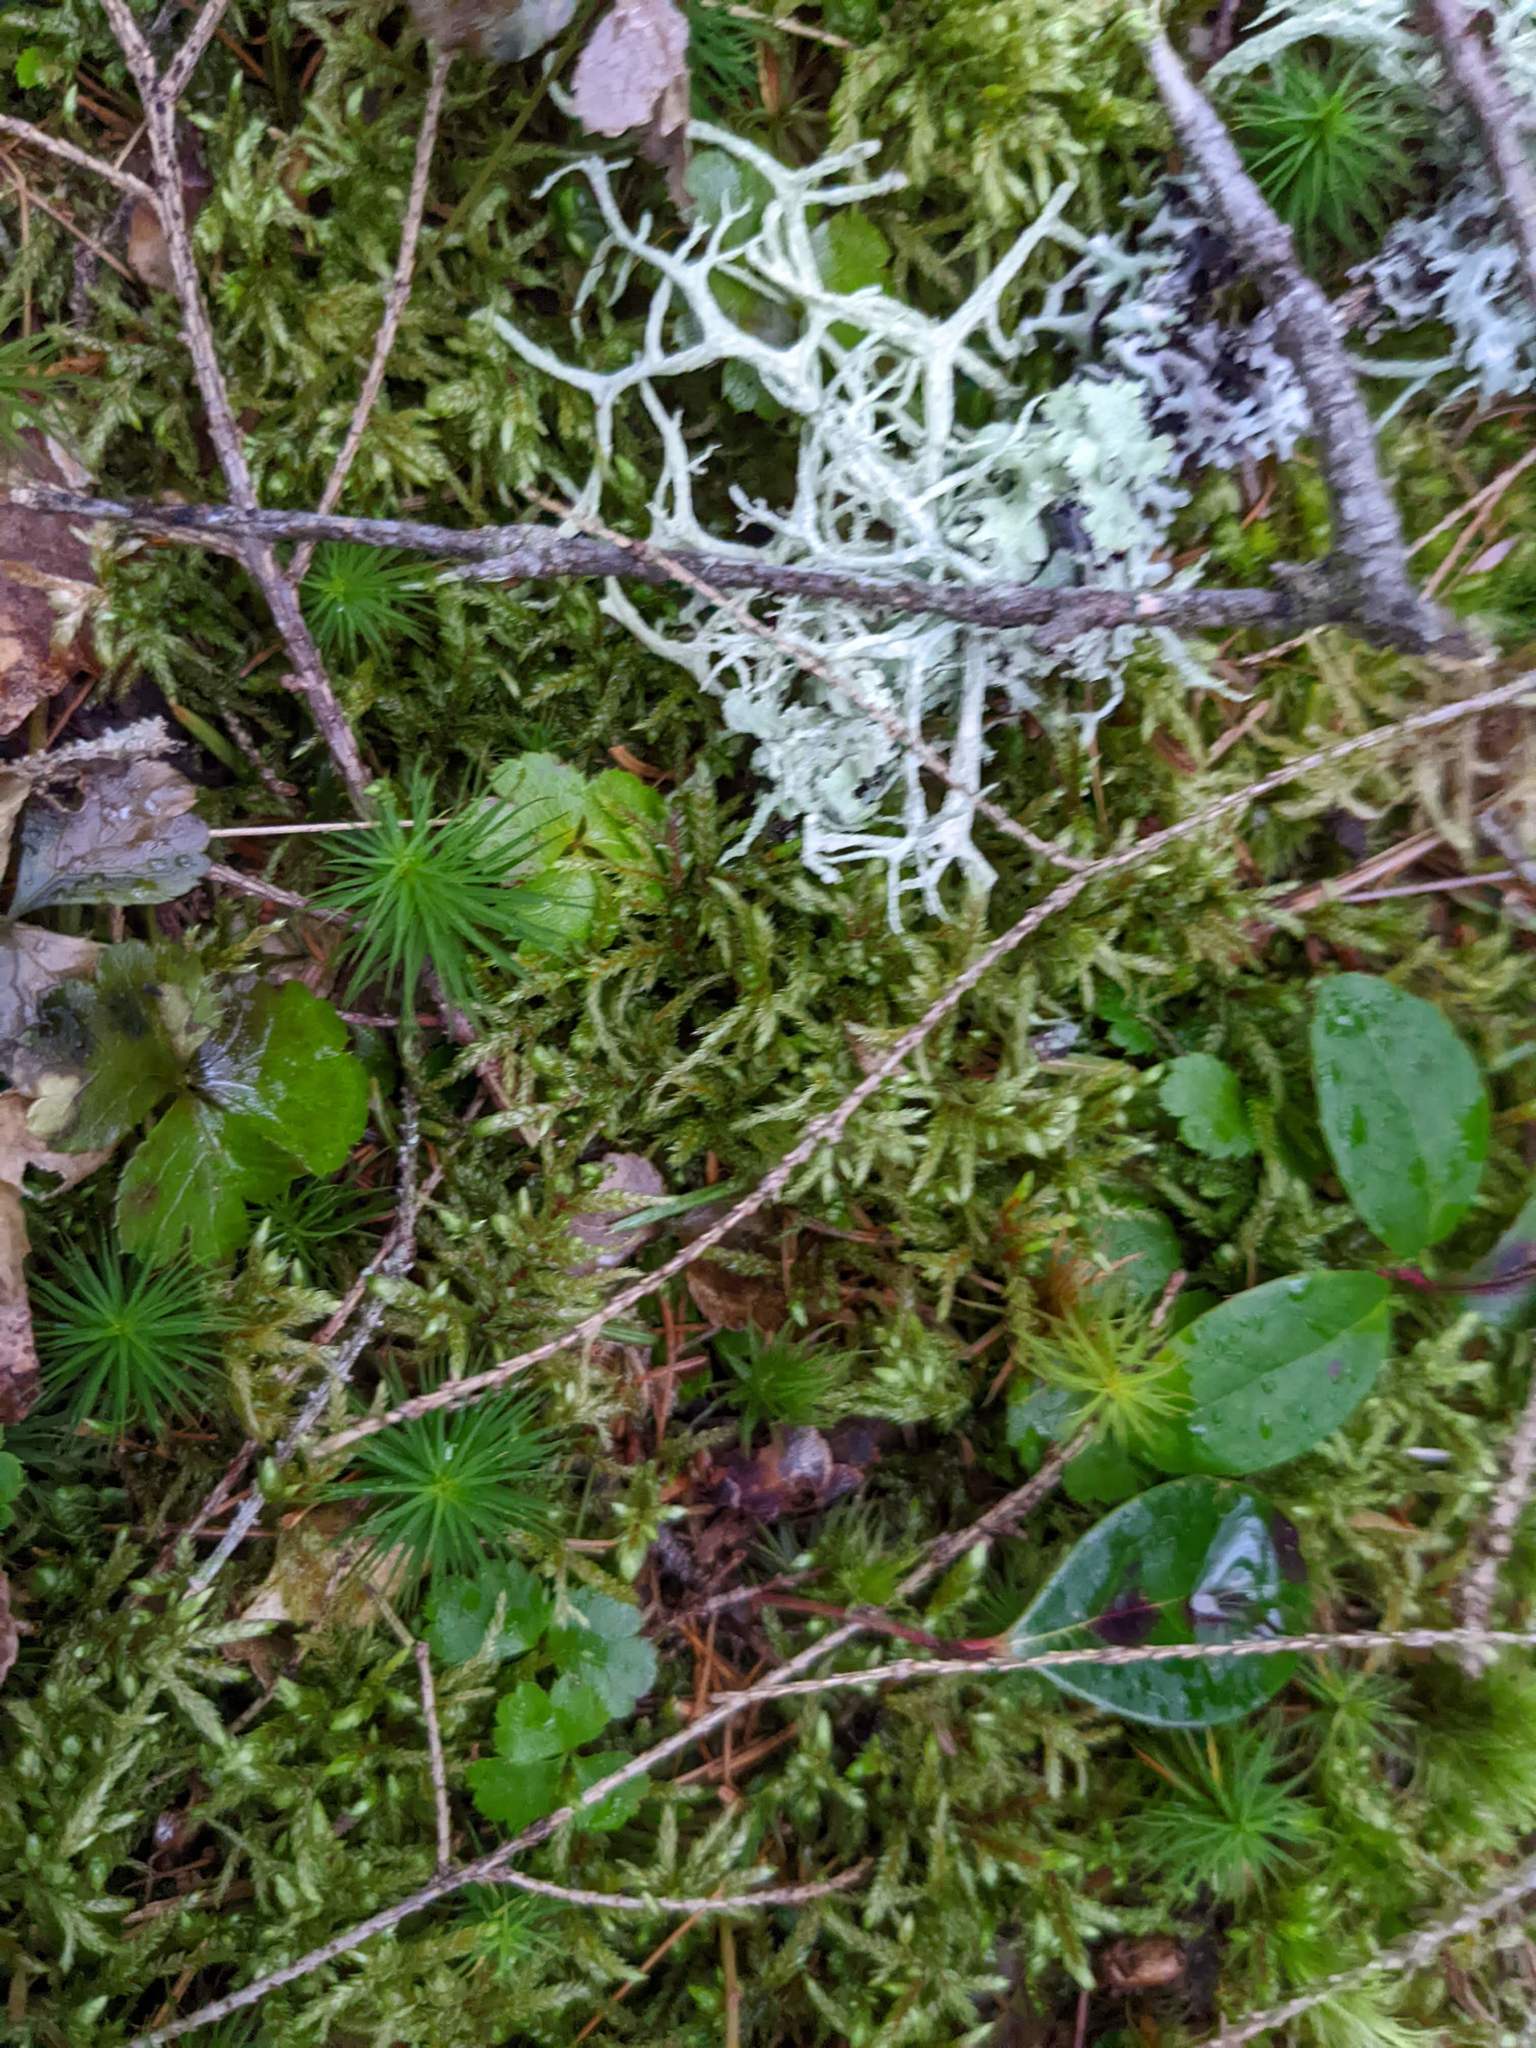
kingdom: Plantae
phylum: Tracheophyta
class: Magnoliopsida
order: Ranunculales
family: Ranunculaceae
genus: Coptis
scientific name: Coptis trifolia
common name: Canker-root
